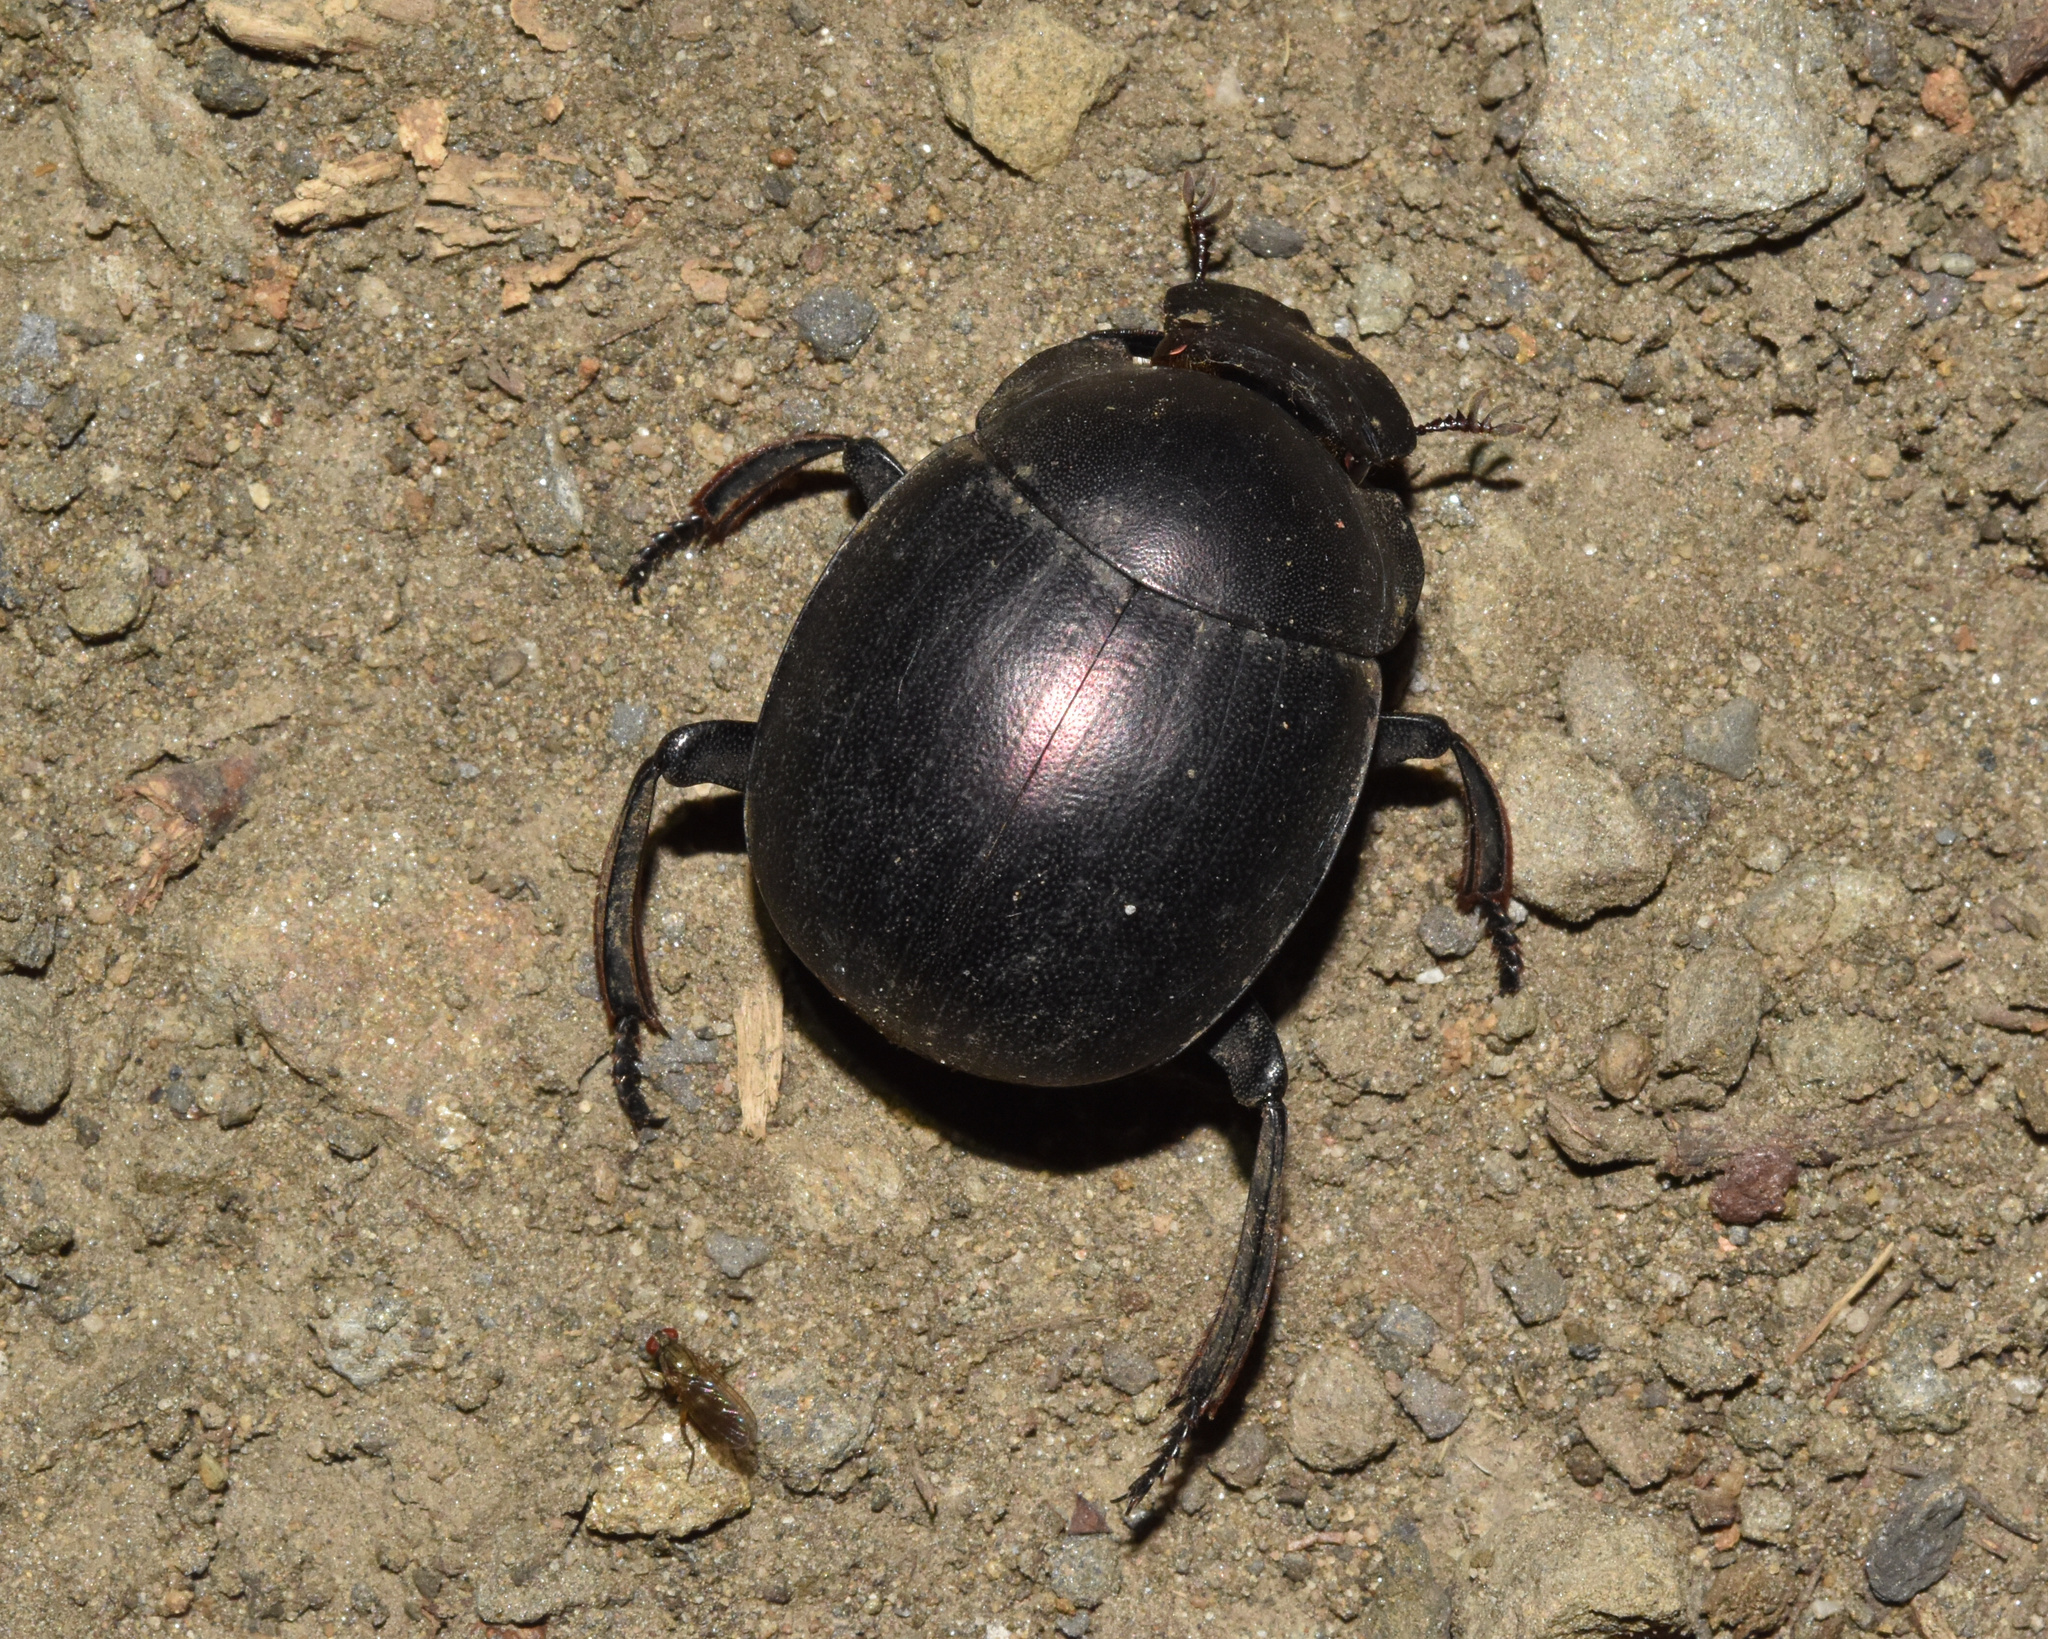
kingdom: Animalia
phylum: Arthropoda
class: Insecta
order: Coleoptera
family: Scarabaeidae
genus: Chalconotus
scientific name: Chalconotus convexus
